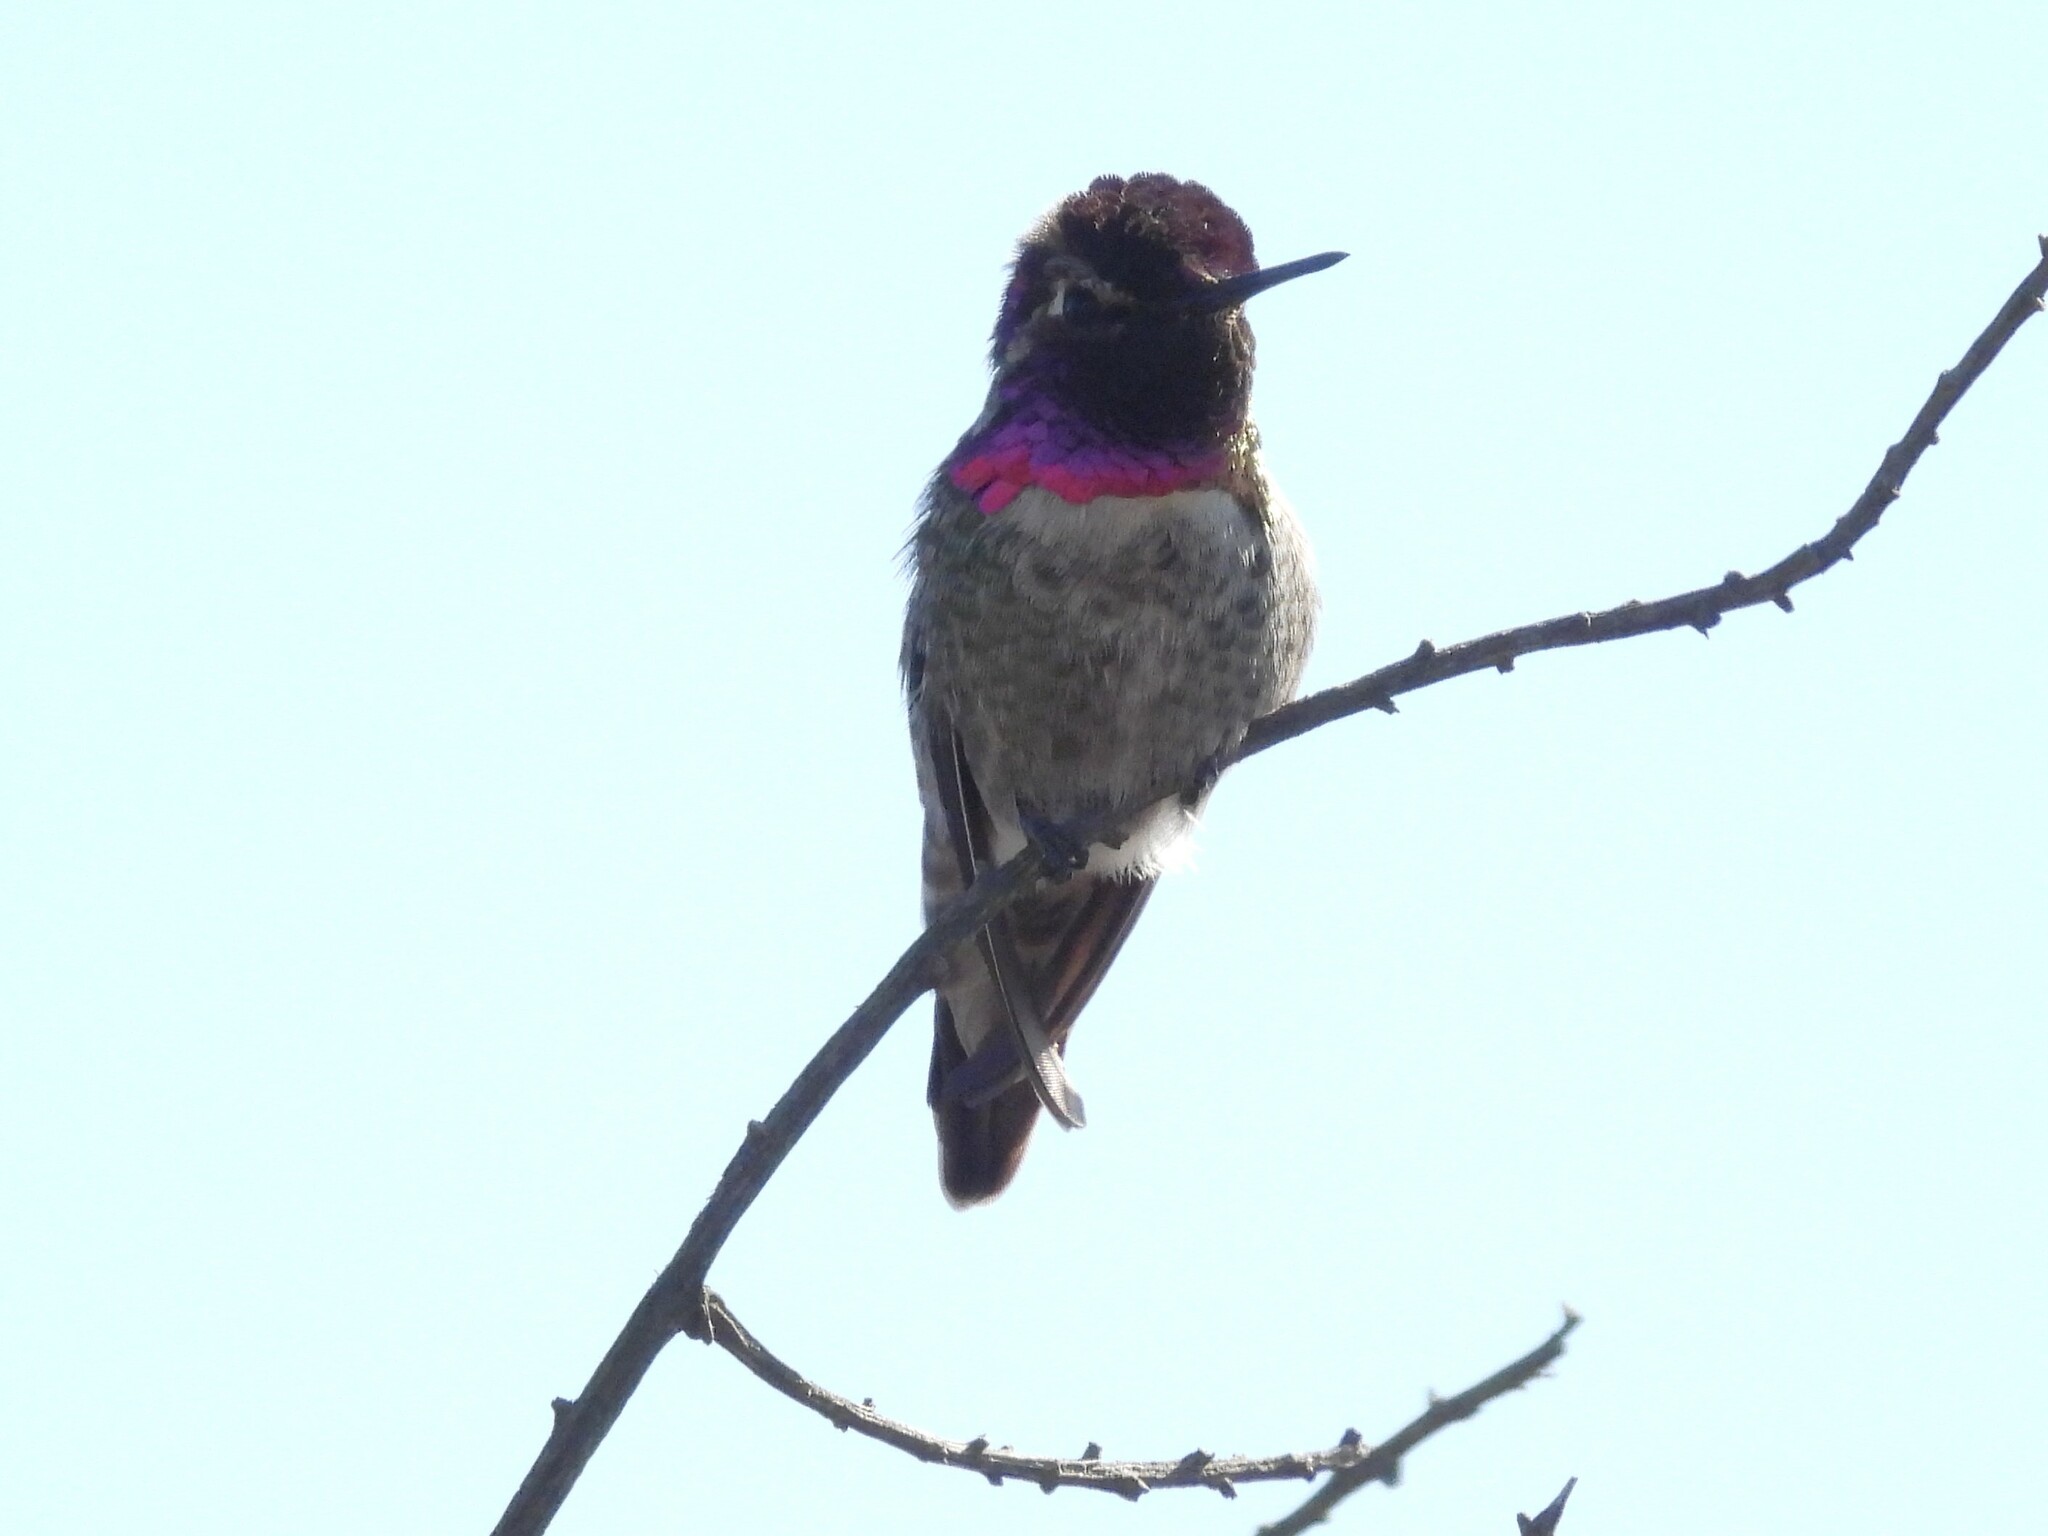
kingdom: Animalia
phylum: Chordata
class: Aves
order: Apodiformes
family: Trochilidae
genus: Calypte
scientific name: Calypte anna
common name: Anna's hummingbird
